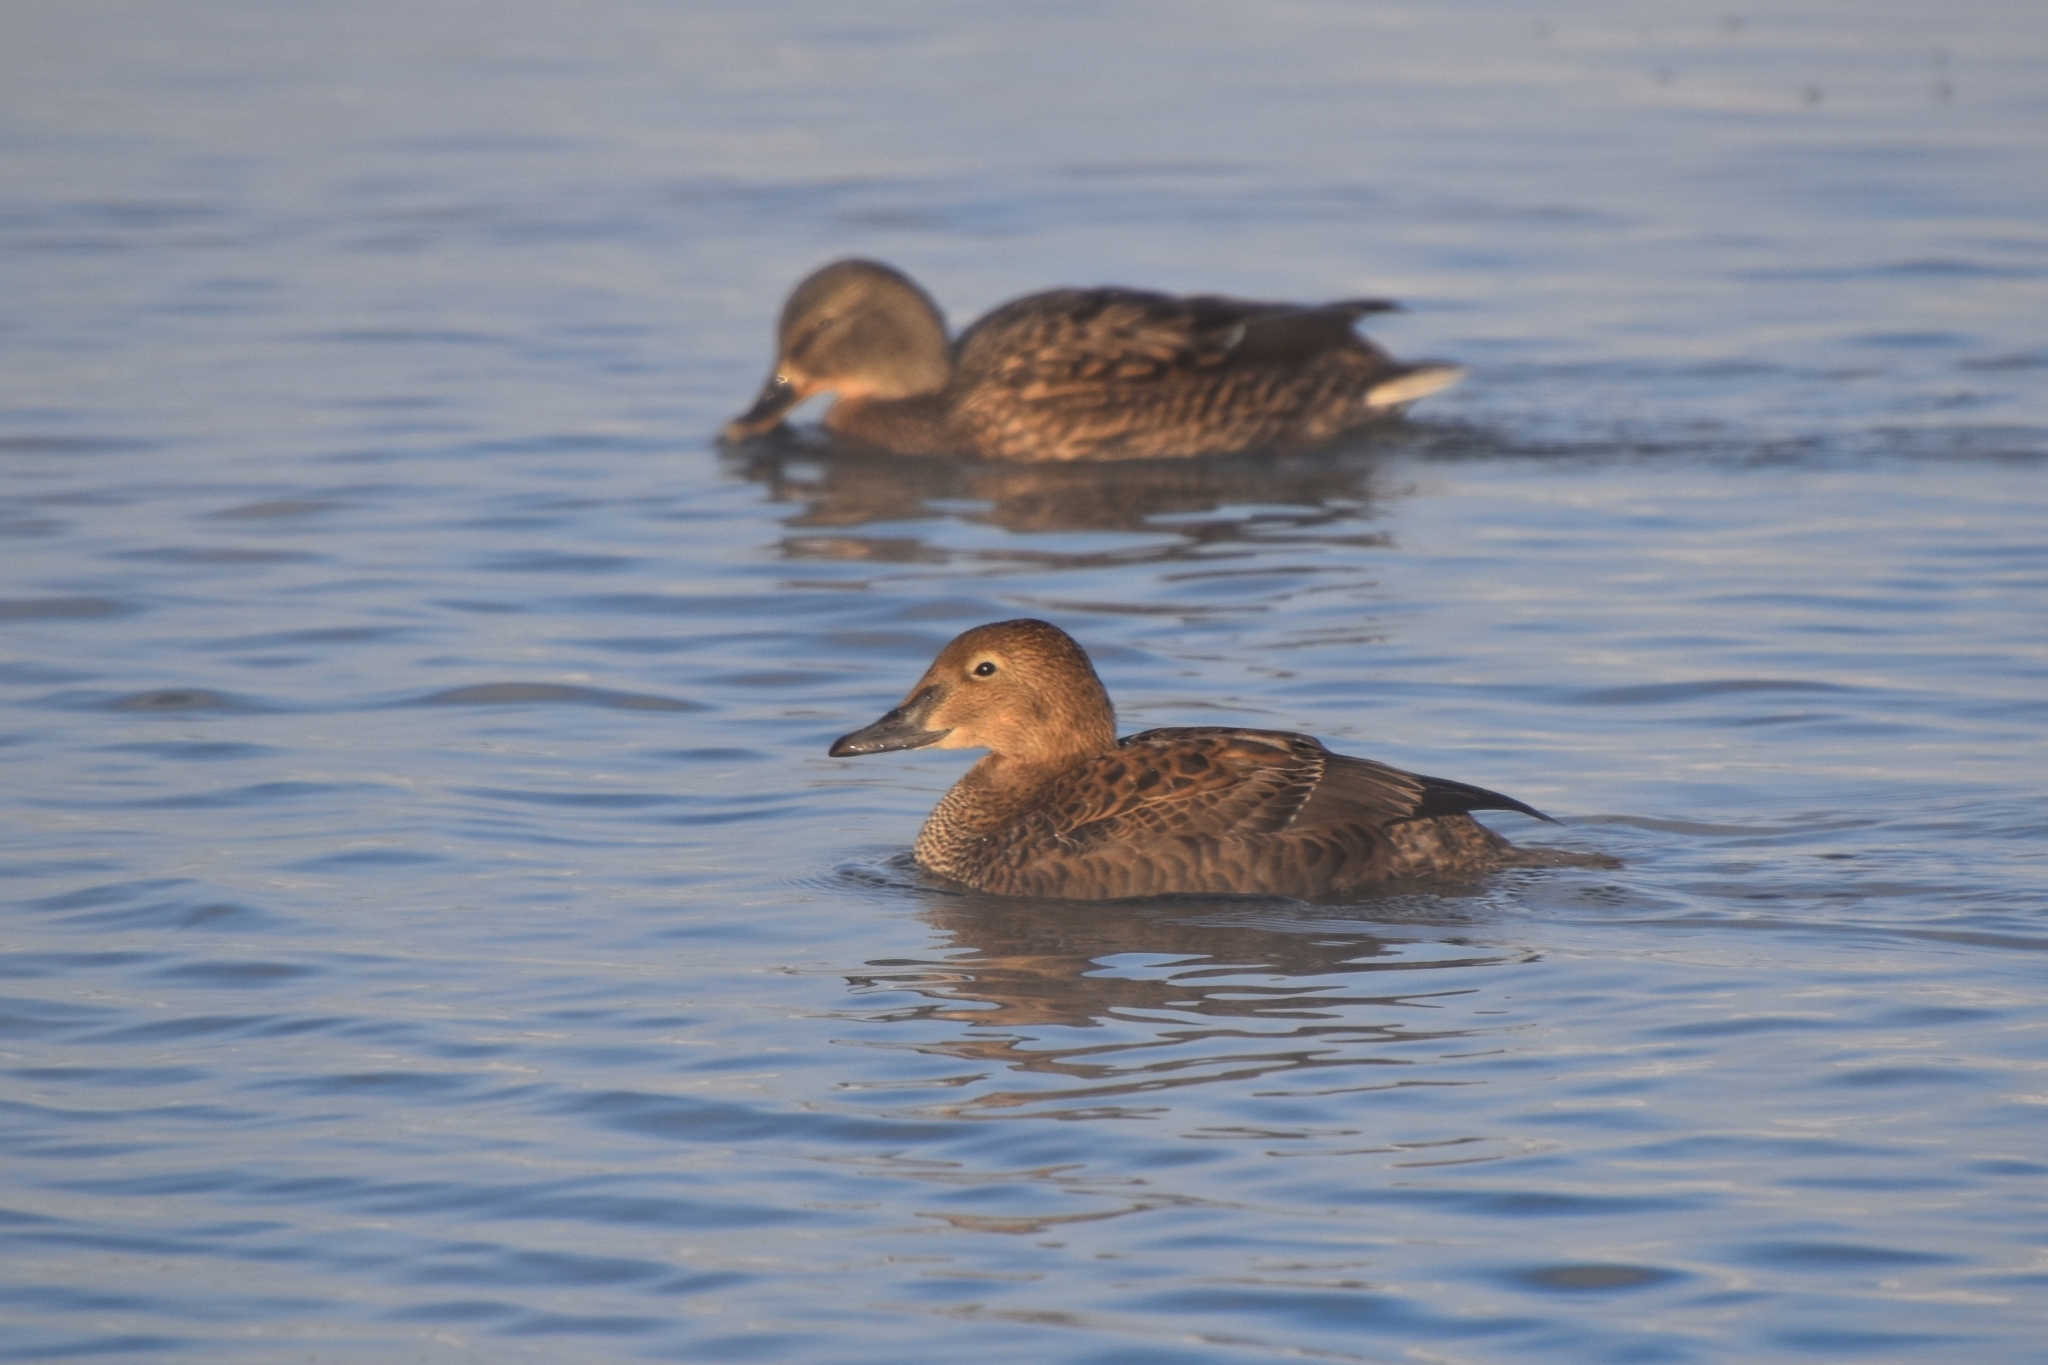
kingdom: Animalia
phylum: Chordata
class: Aves
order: Anseriformes
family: Anatidae
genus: Somateria
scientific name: Somateria spectabilis
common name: King eider
